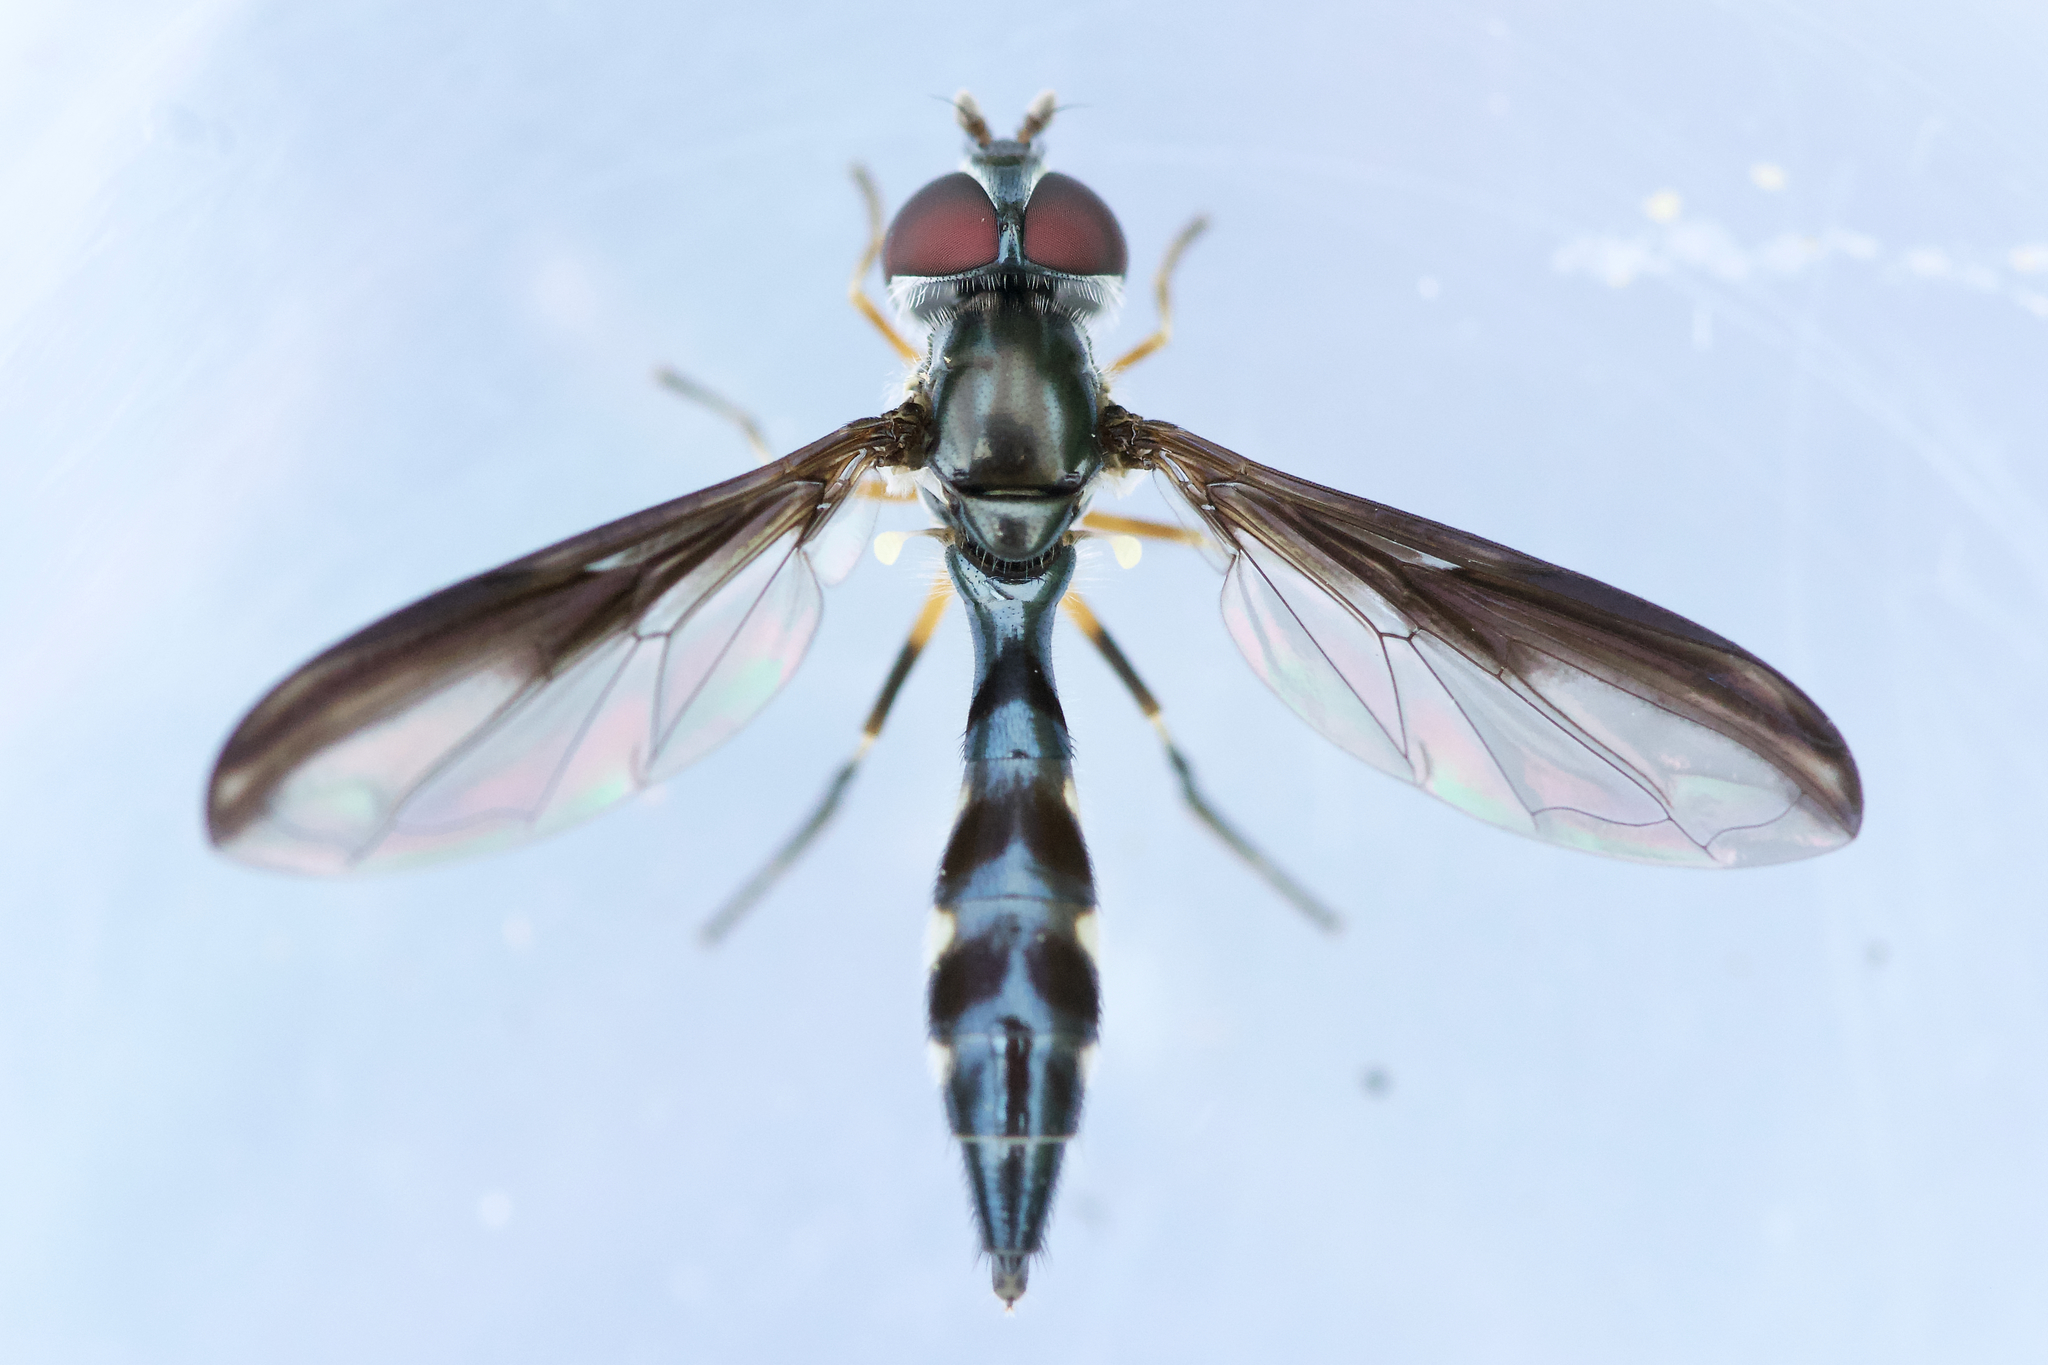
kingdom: Animalia
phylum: Arthropoda
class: Insecta
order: Diptera
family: Syrphidae
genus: Ocyptamus
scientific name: Ocyptamus costatus
